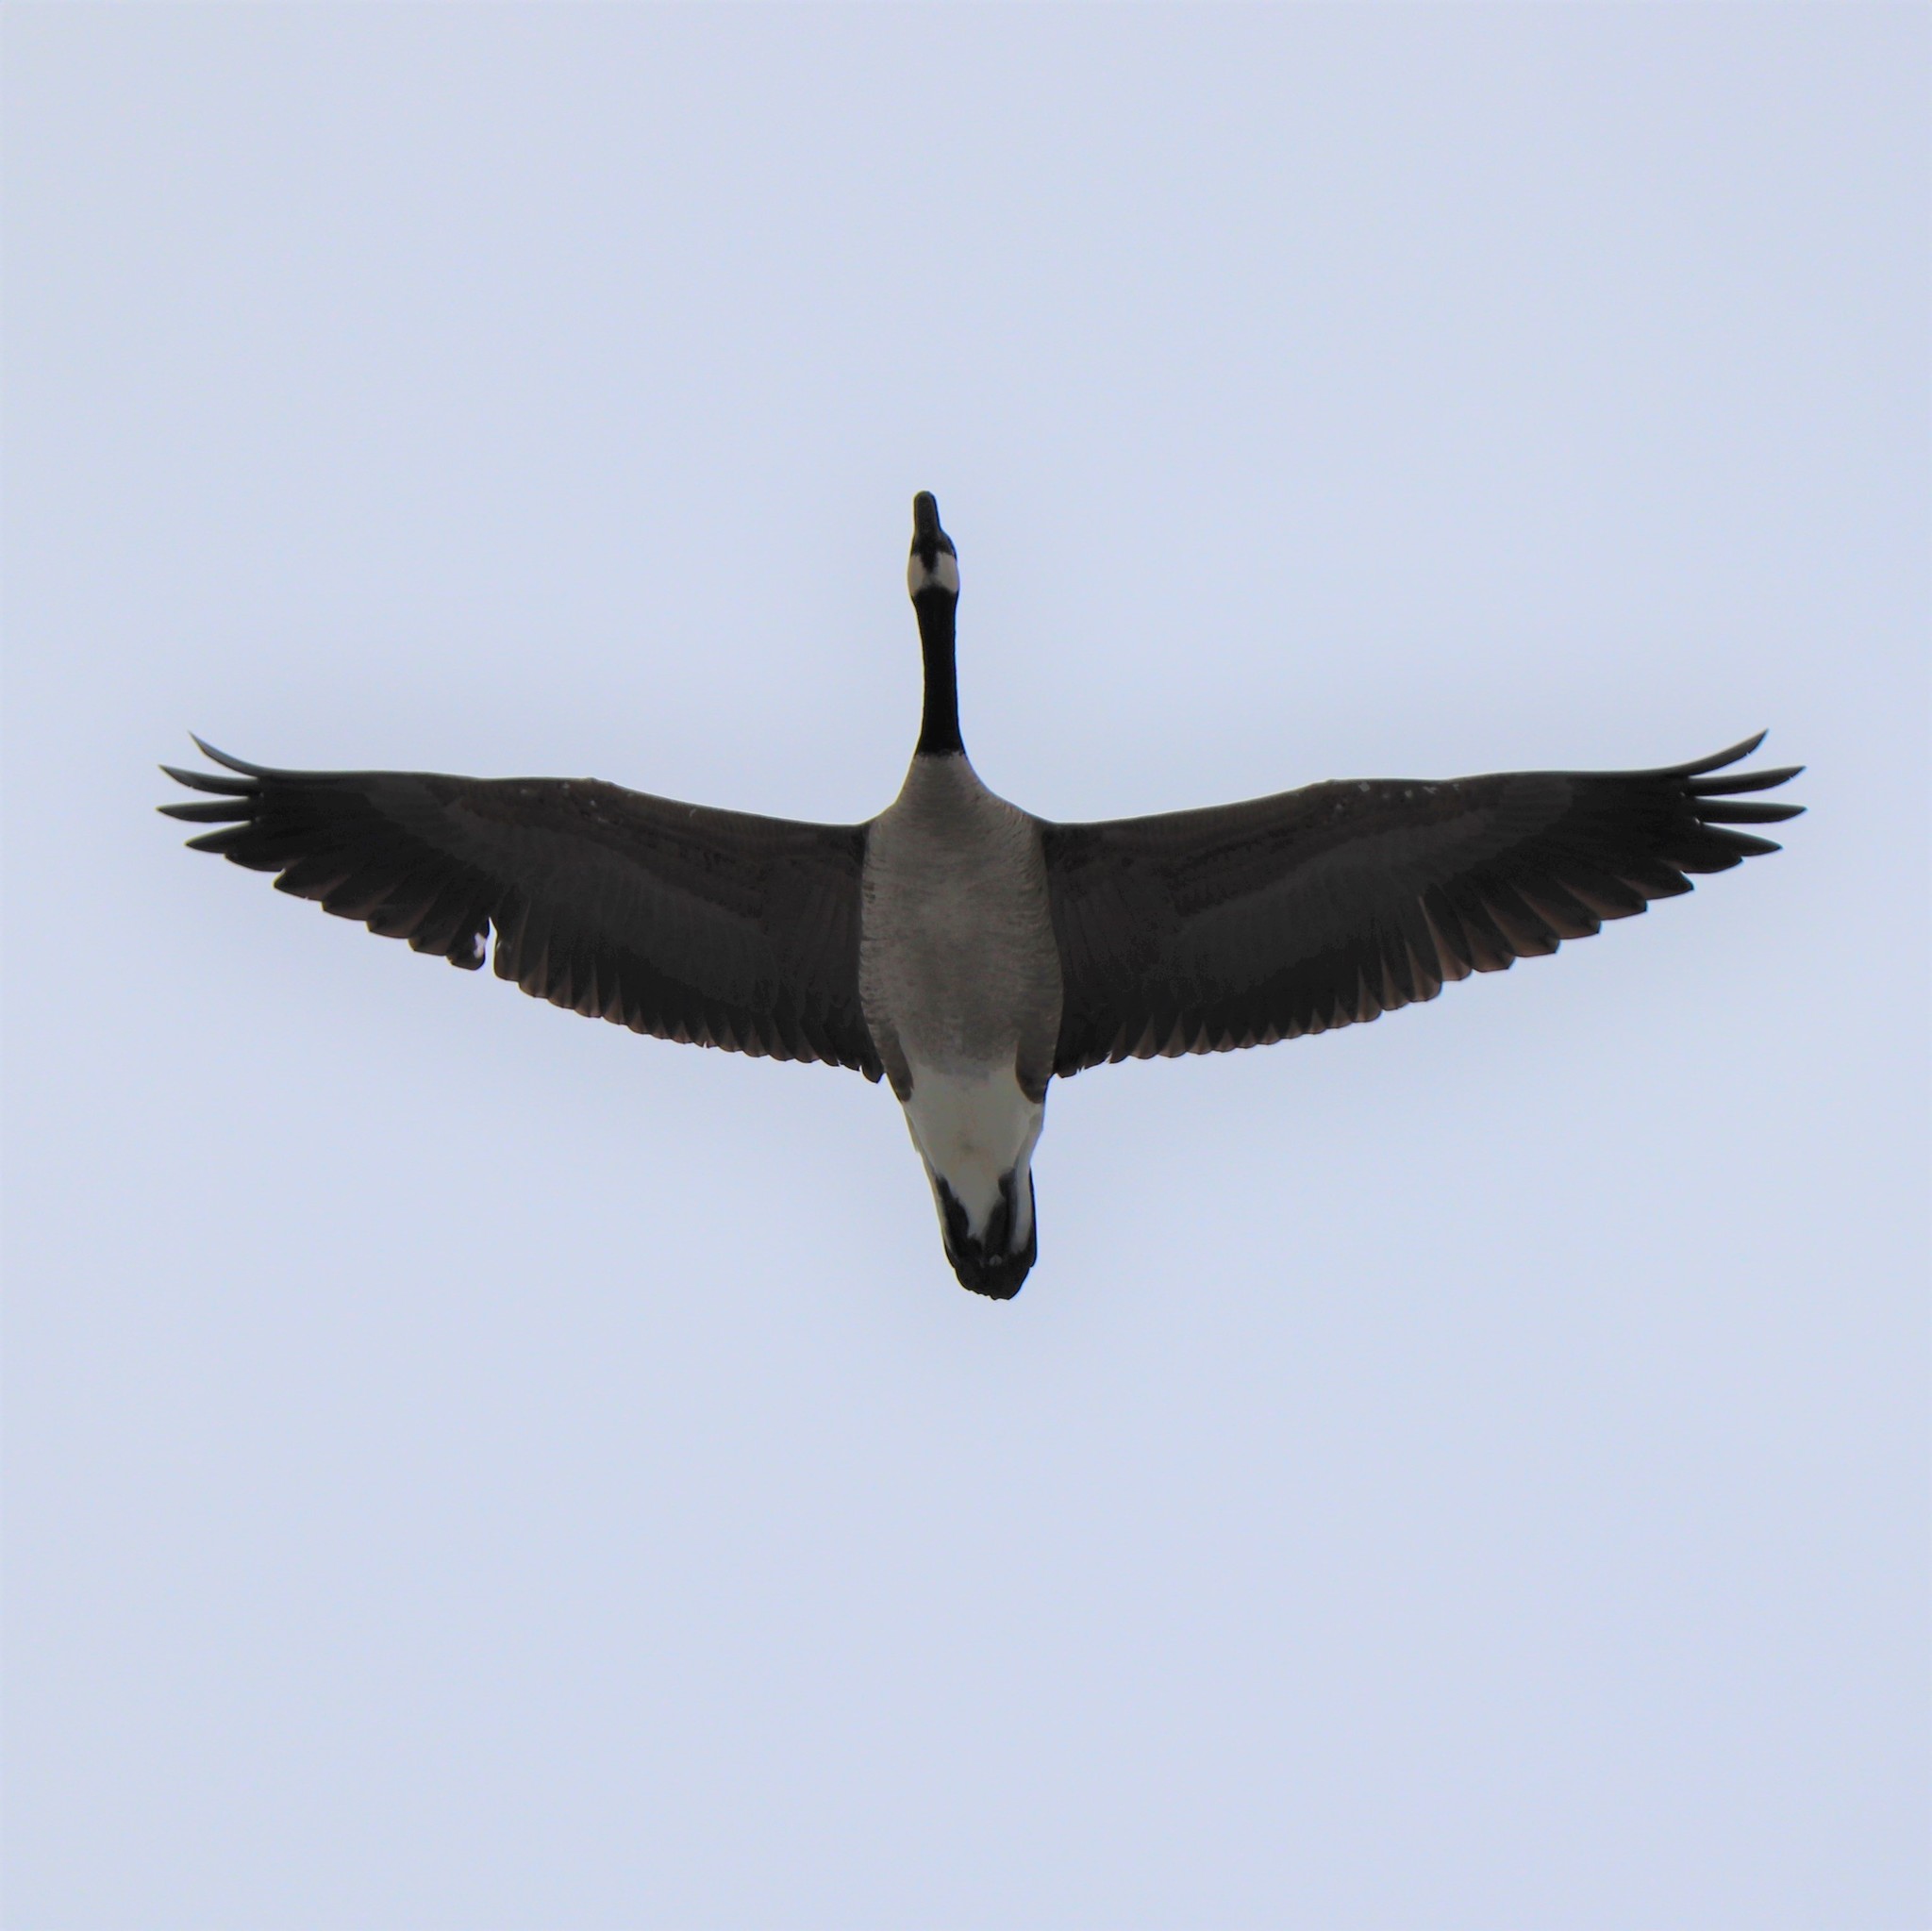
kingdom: Animalia
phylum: Chordata
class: Aves
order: Anseriformes
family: Anatidae
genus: Branta
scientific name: Branta canadensis
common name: Canada goose
